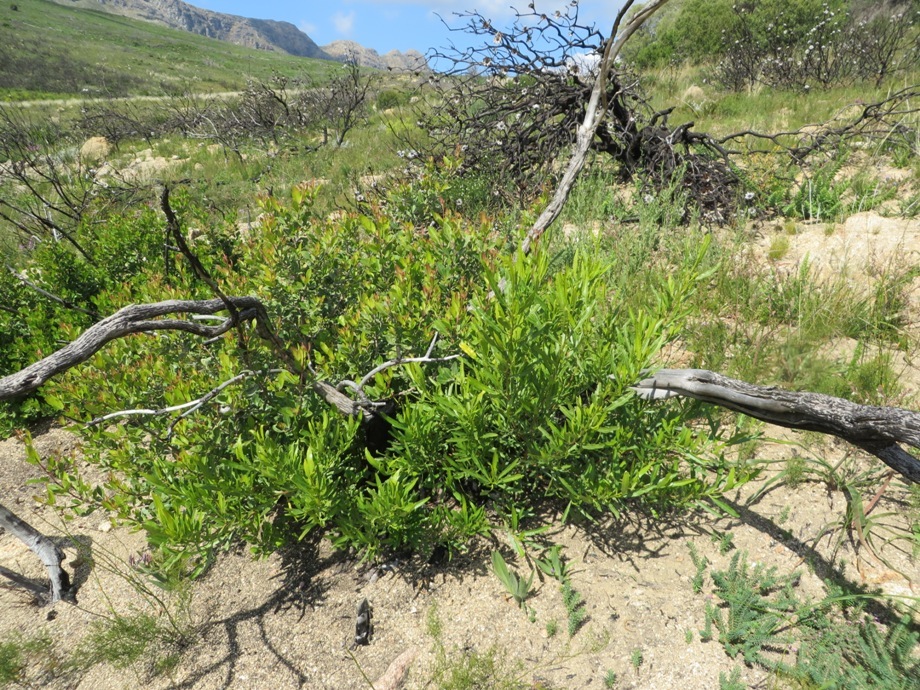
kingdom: Plantae
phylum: Tracheophyta
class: Magnoliopsida
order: Sapindales
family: Sapindaceae
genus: Dodonaea
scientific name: Dodonaea viscosa
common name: Hopbush
